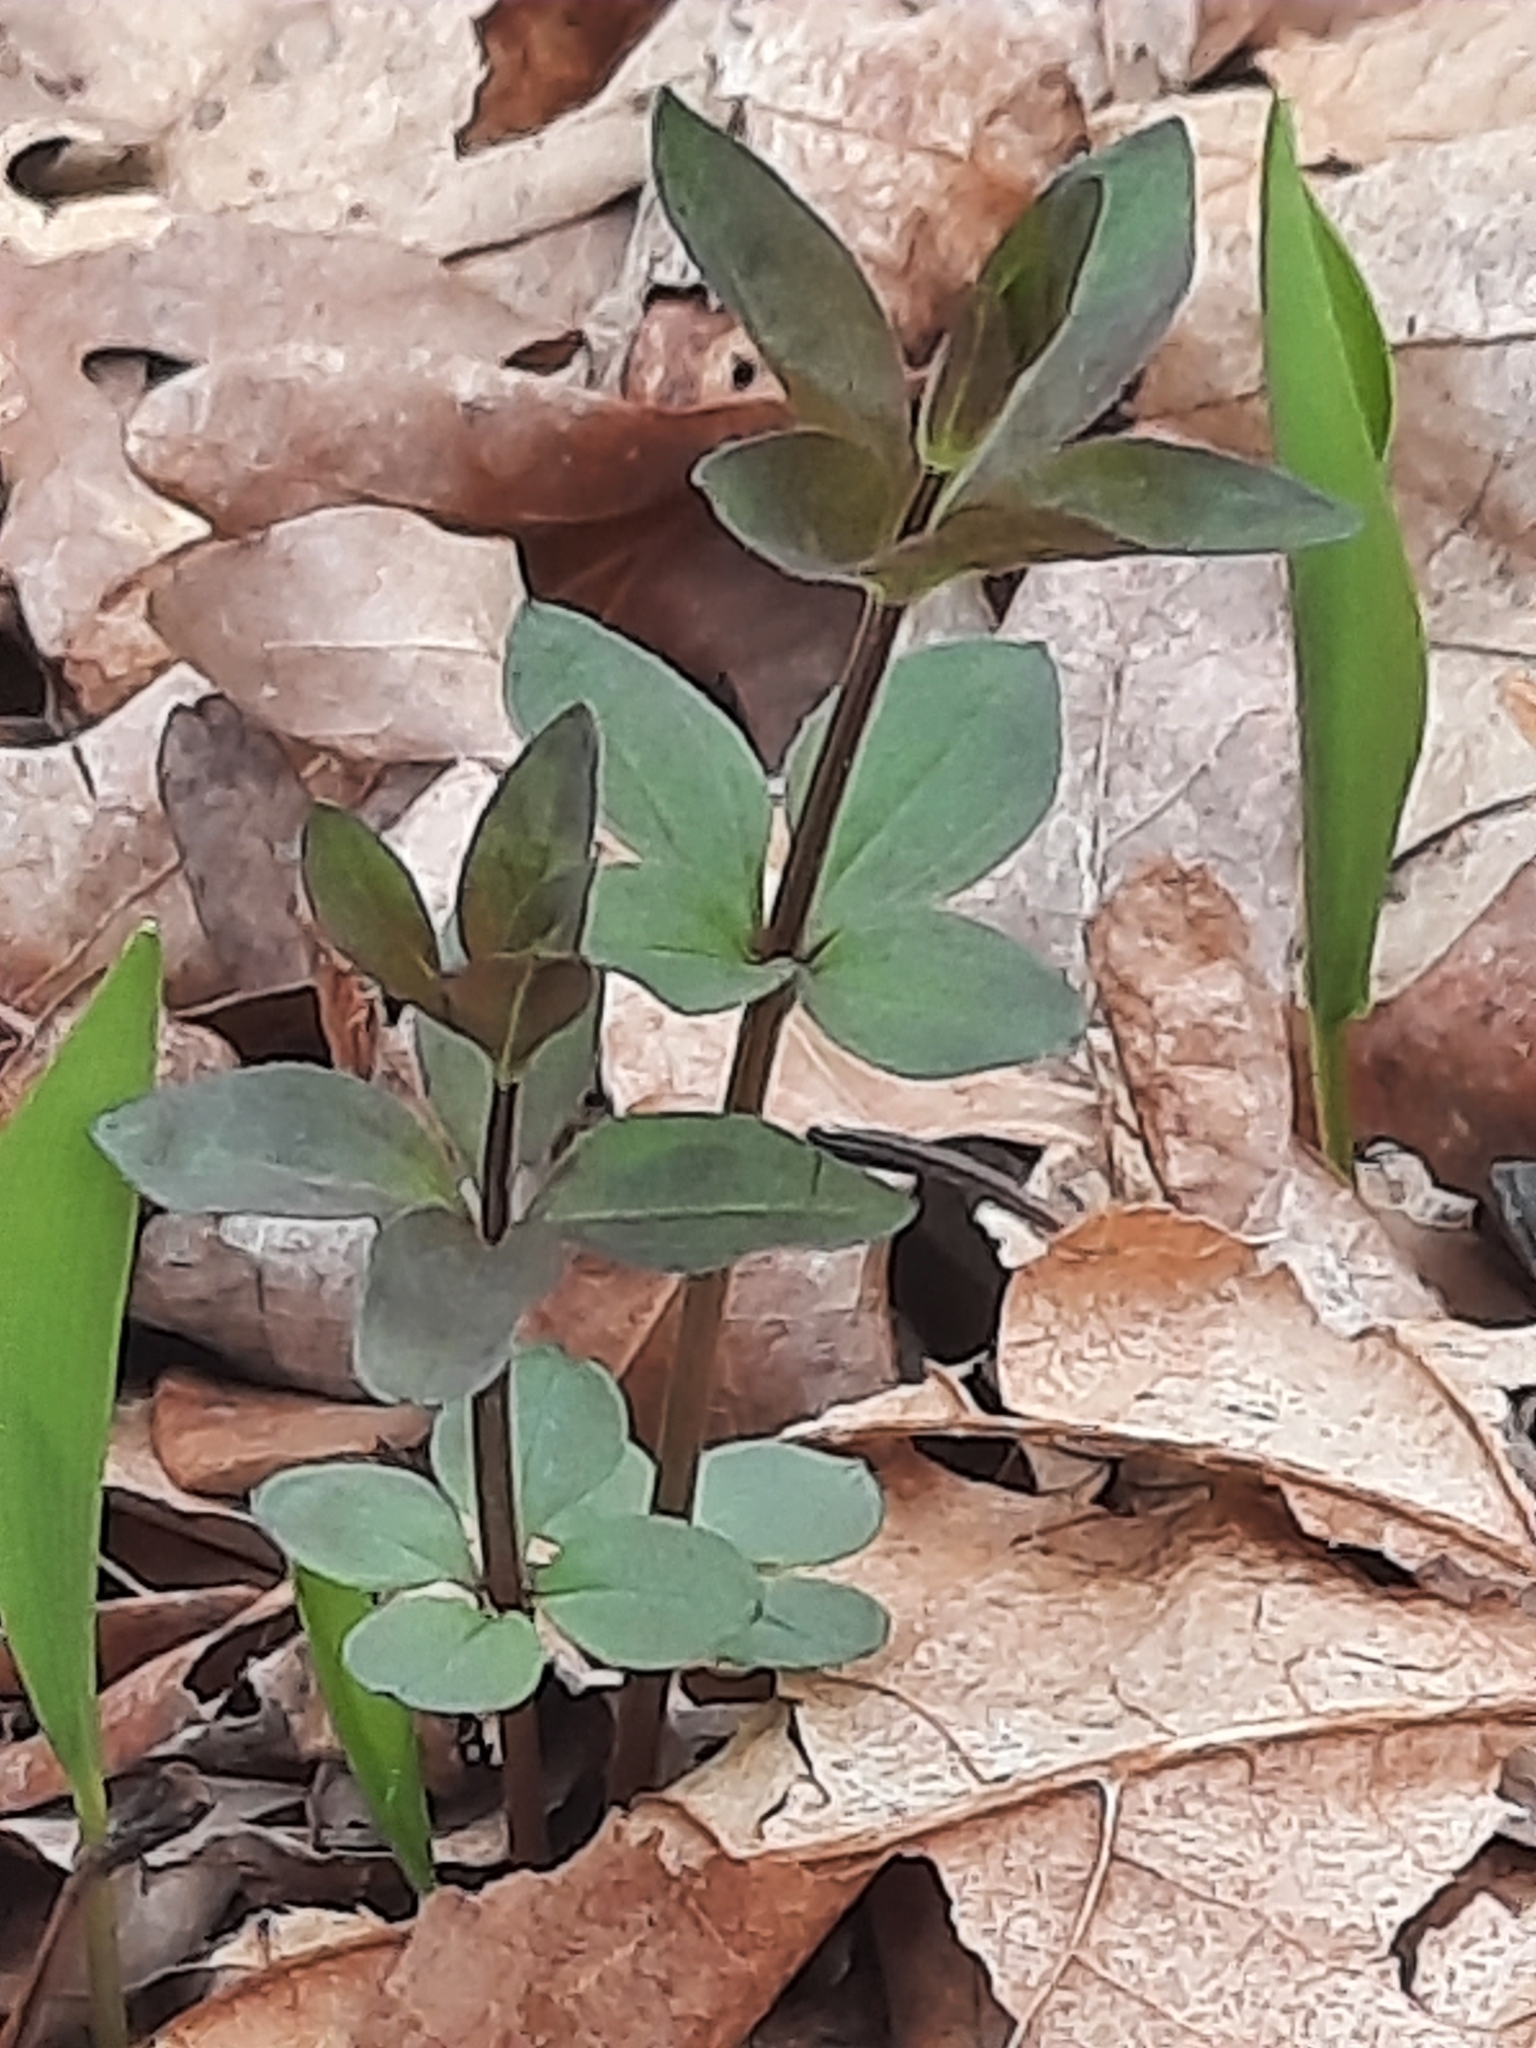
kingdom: Plantae
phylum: Tracheophyta
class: Magnoliopsida
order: Gentianales
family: Rubiaceae
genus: Galium
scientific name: Galium circaezans
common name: Forest bedstraw
